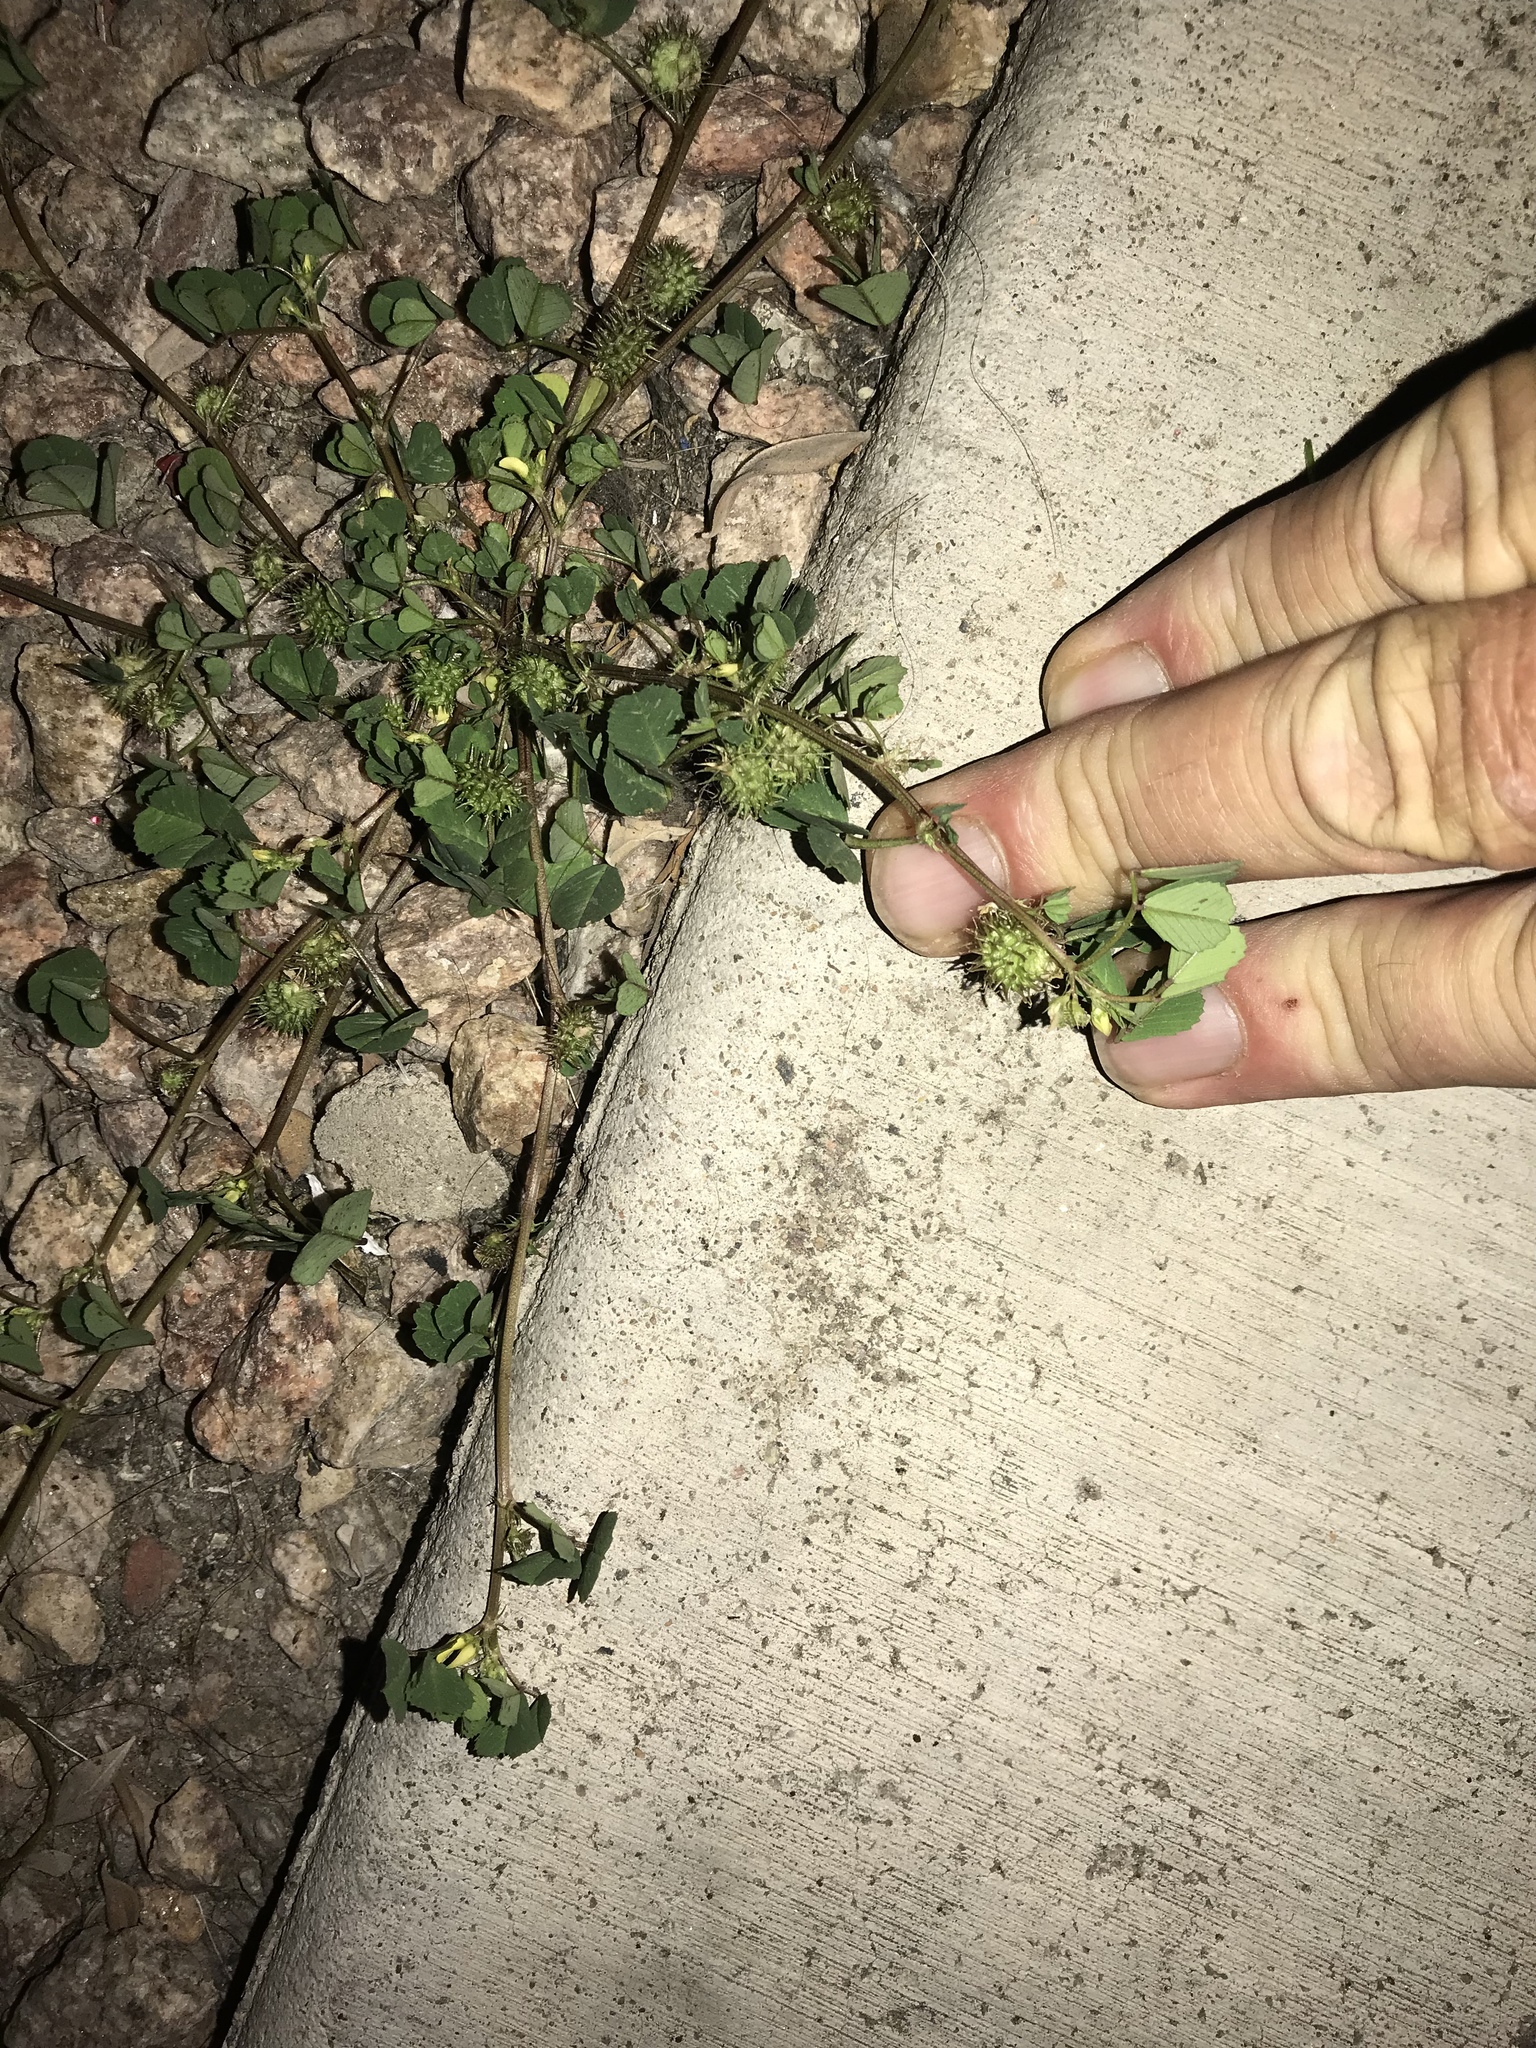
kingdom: Plantae
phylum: Tracheophyta
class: Magnoliopsida
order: Fabales
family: Fabaceae
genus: Medicago
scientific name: Medicago polymorpha
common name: Burclover
